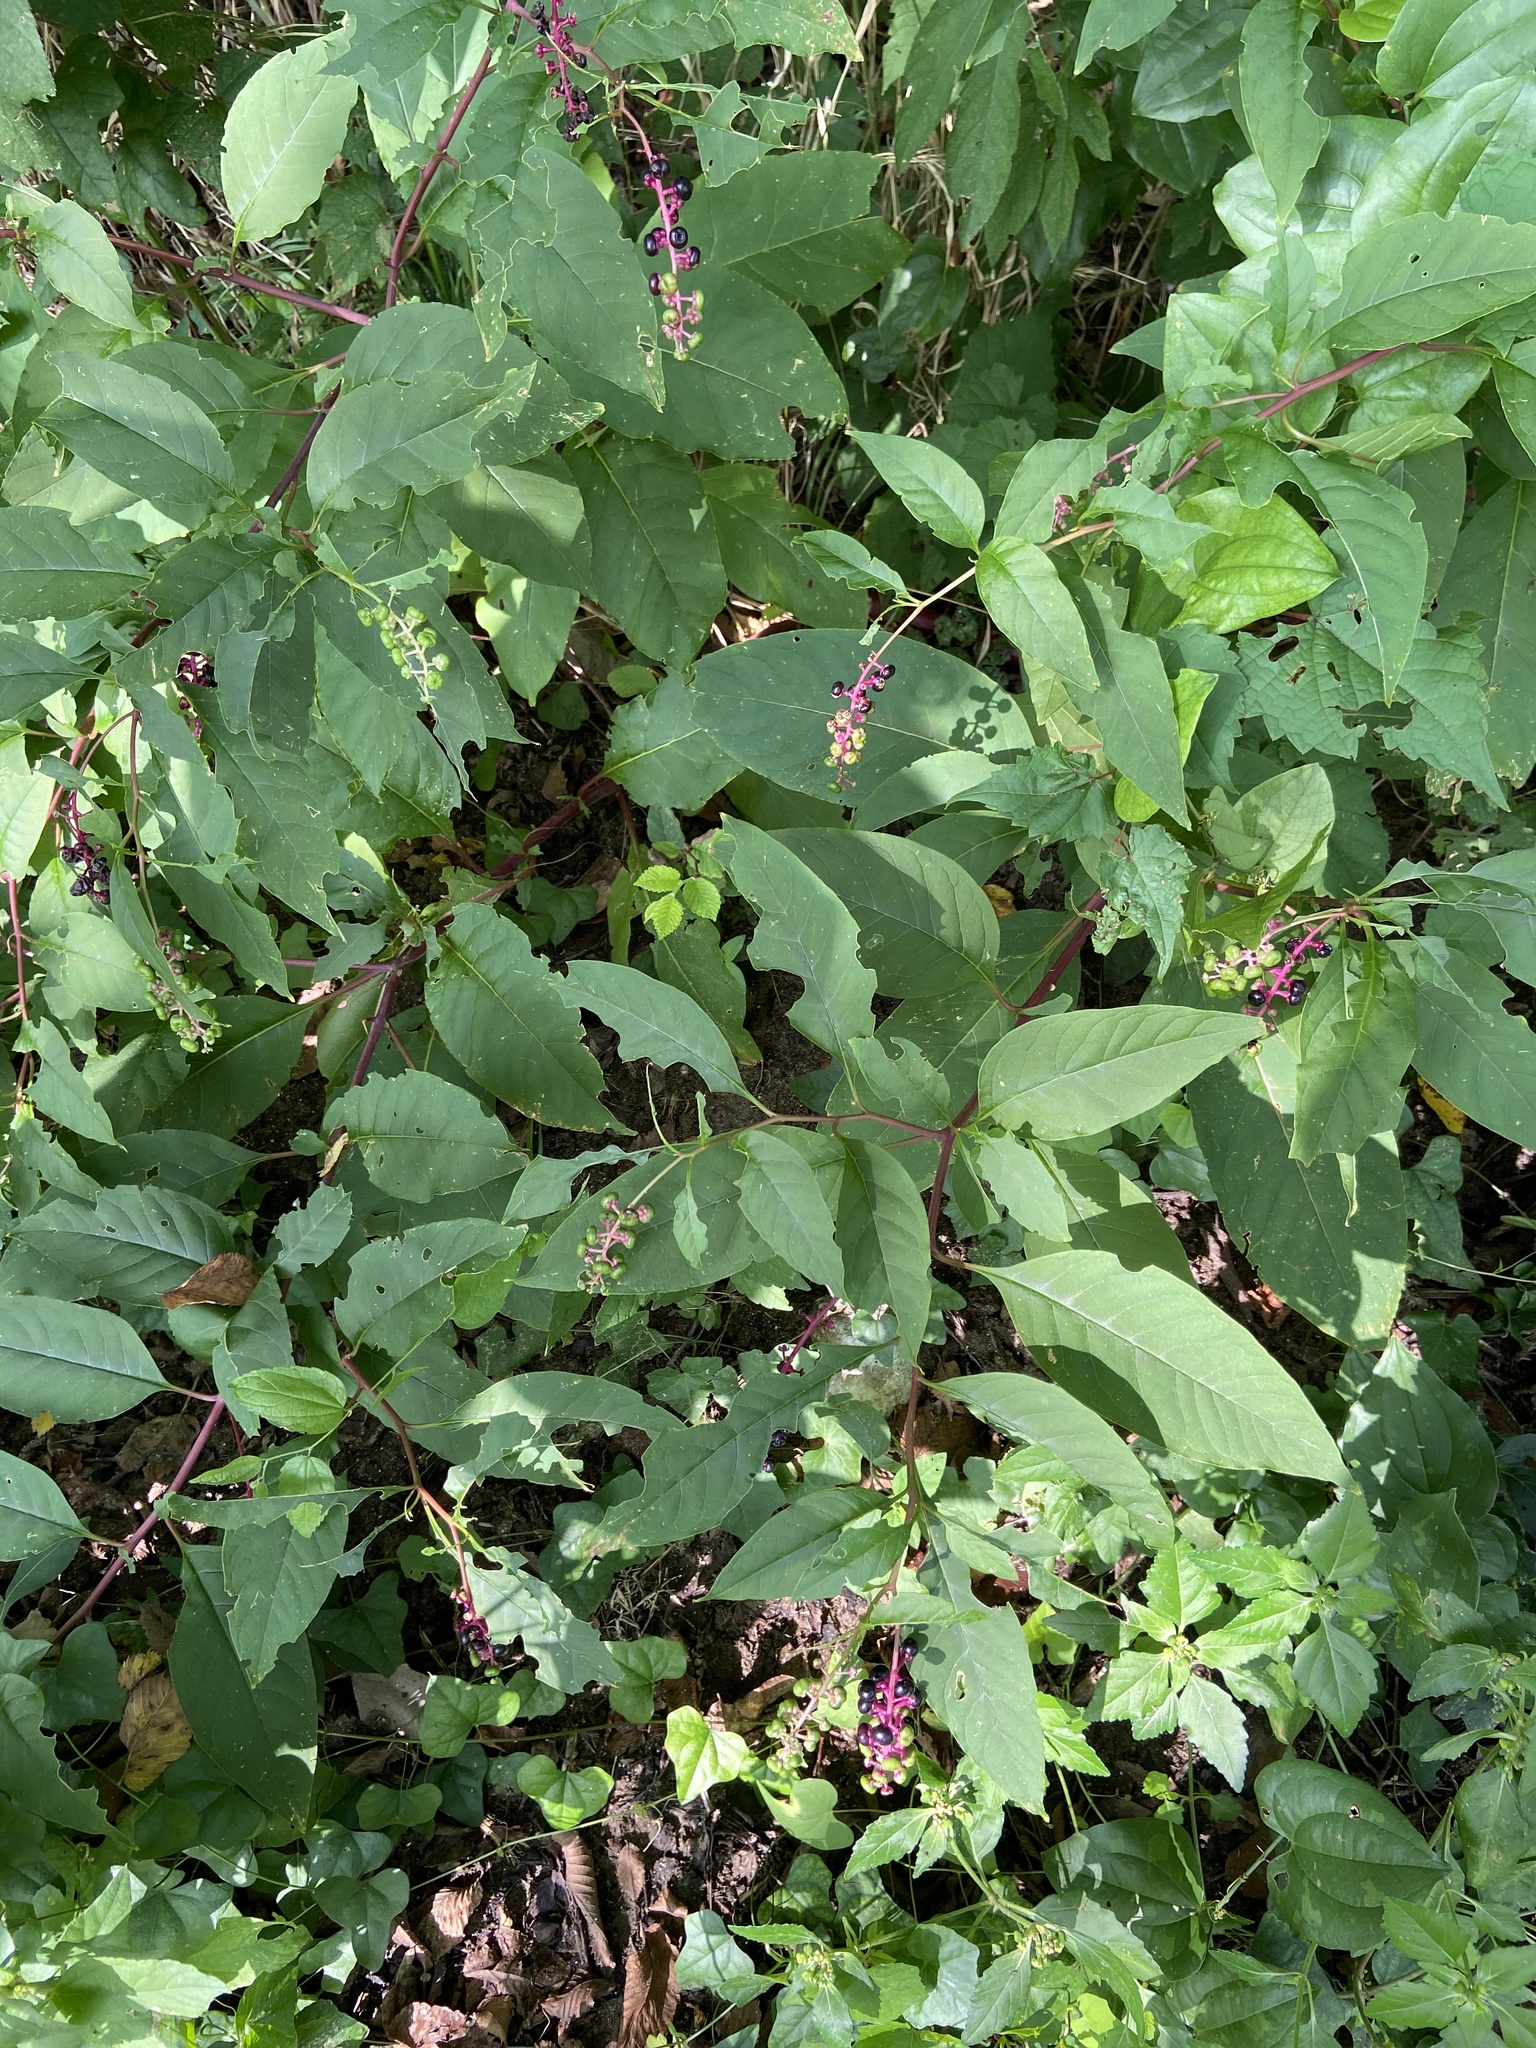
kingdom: Plantae
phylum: Tracheophyta
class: Magnoliopsida
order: Caryophyllales
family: Phytolaccaceae
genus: Phytolacca
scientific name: Phytolacca americana
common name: American pokeweed
